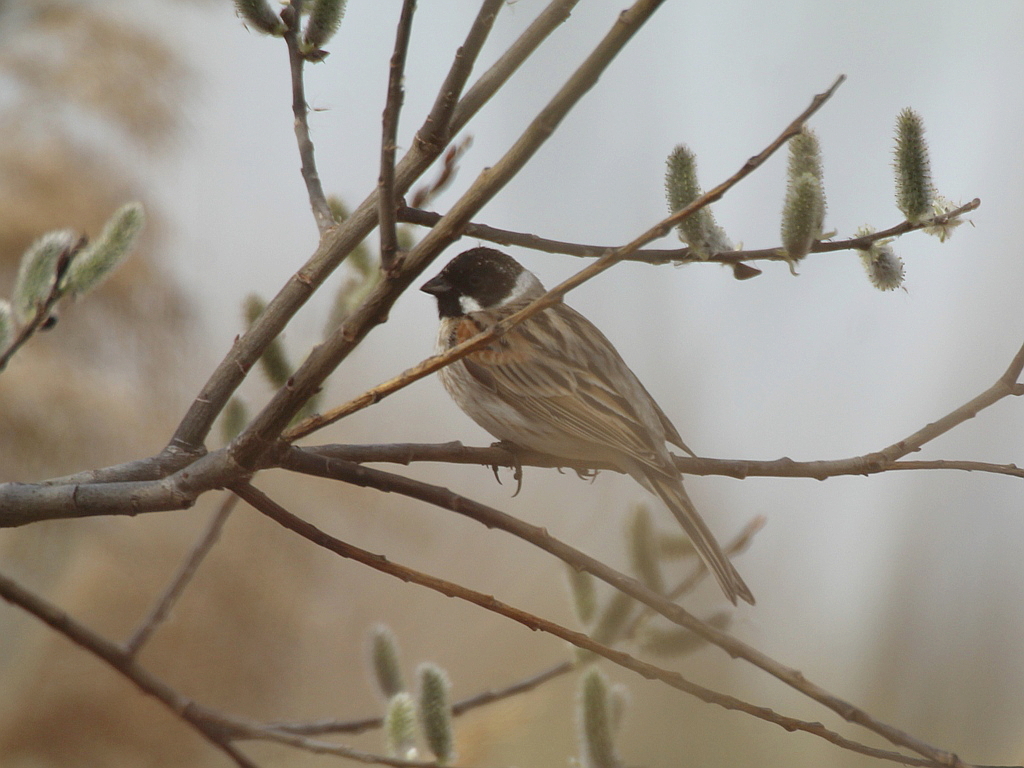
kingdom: Animalia
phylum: Chordata
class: Aves
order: Passeriformes
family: Emberizidae
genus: Emberiza
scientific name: Emberiza schoeniclus
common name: Reed bunting
